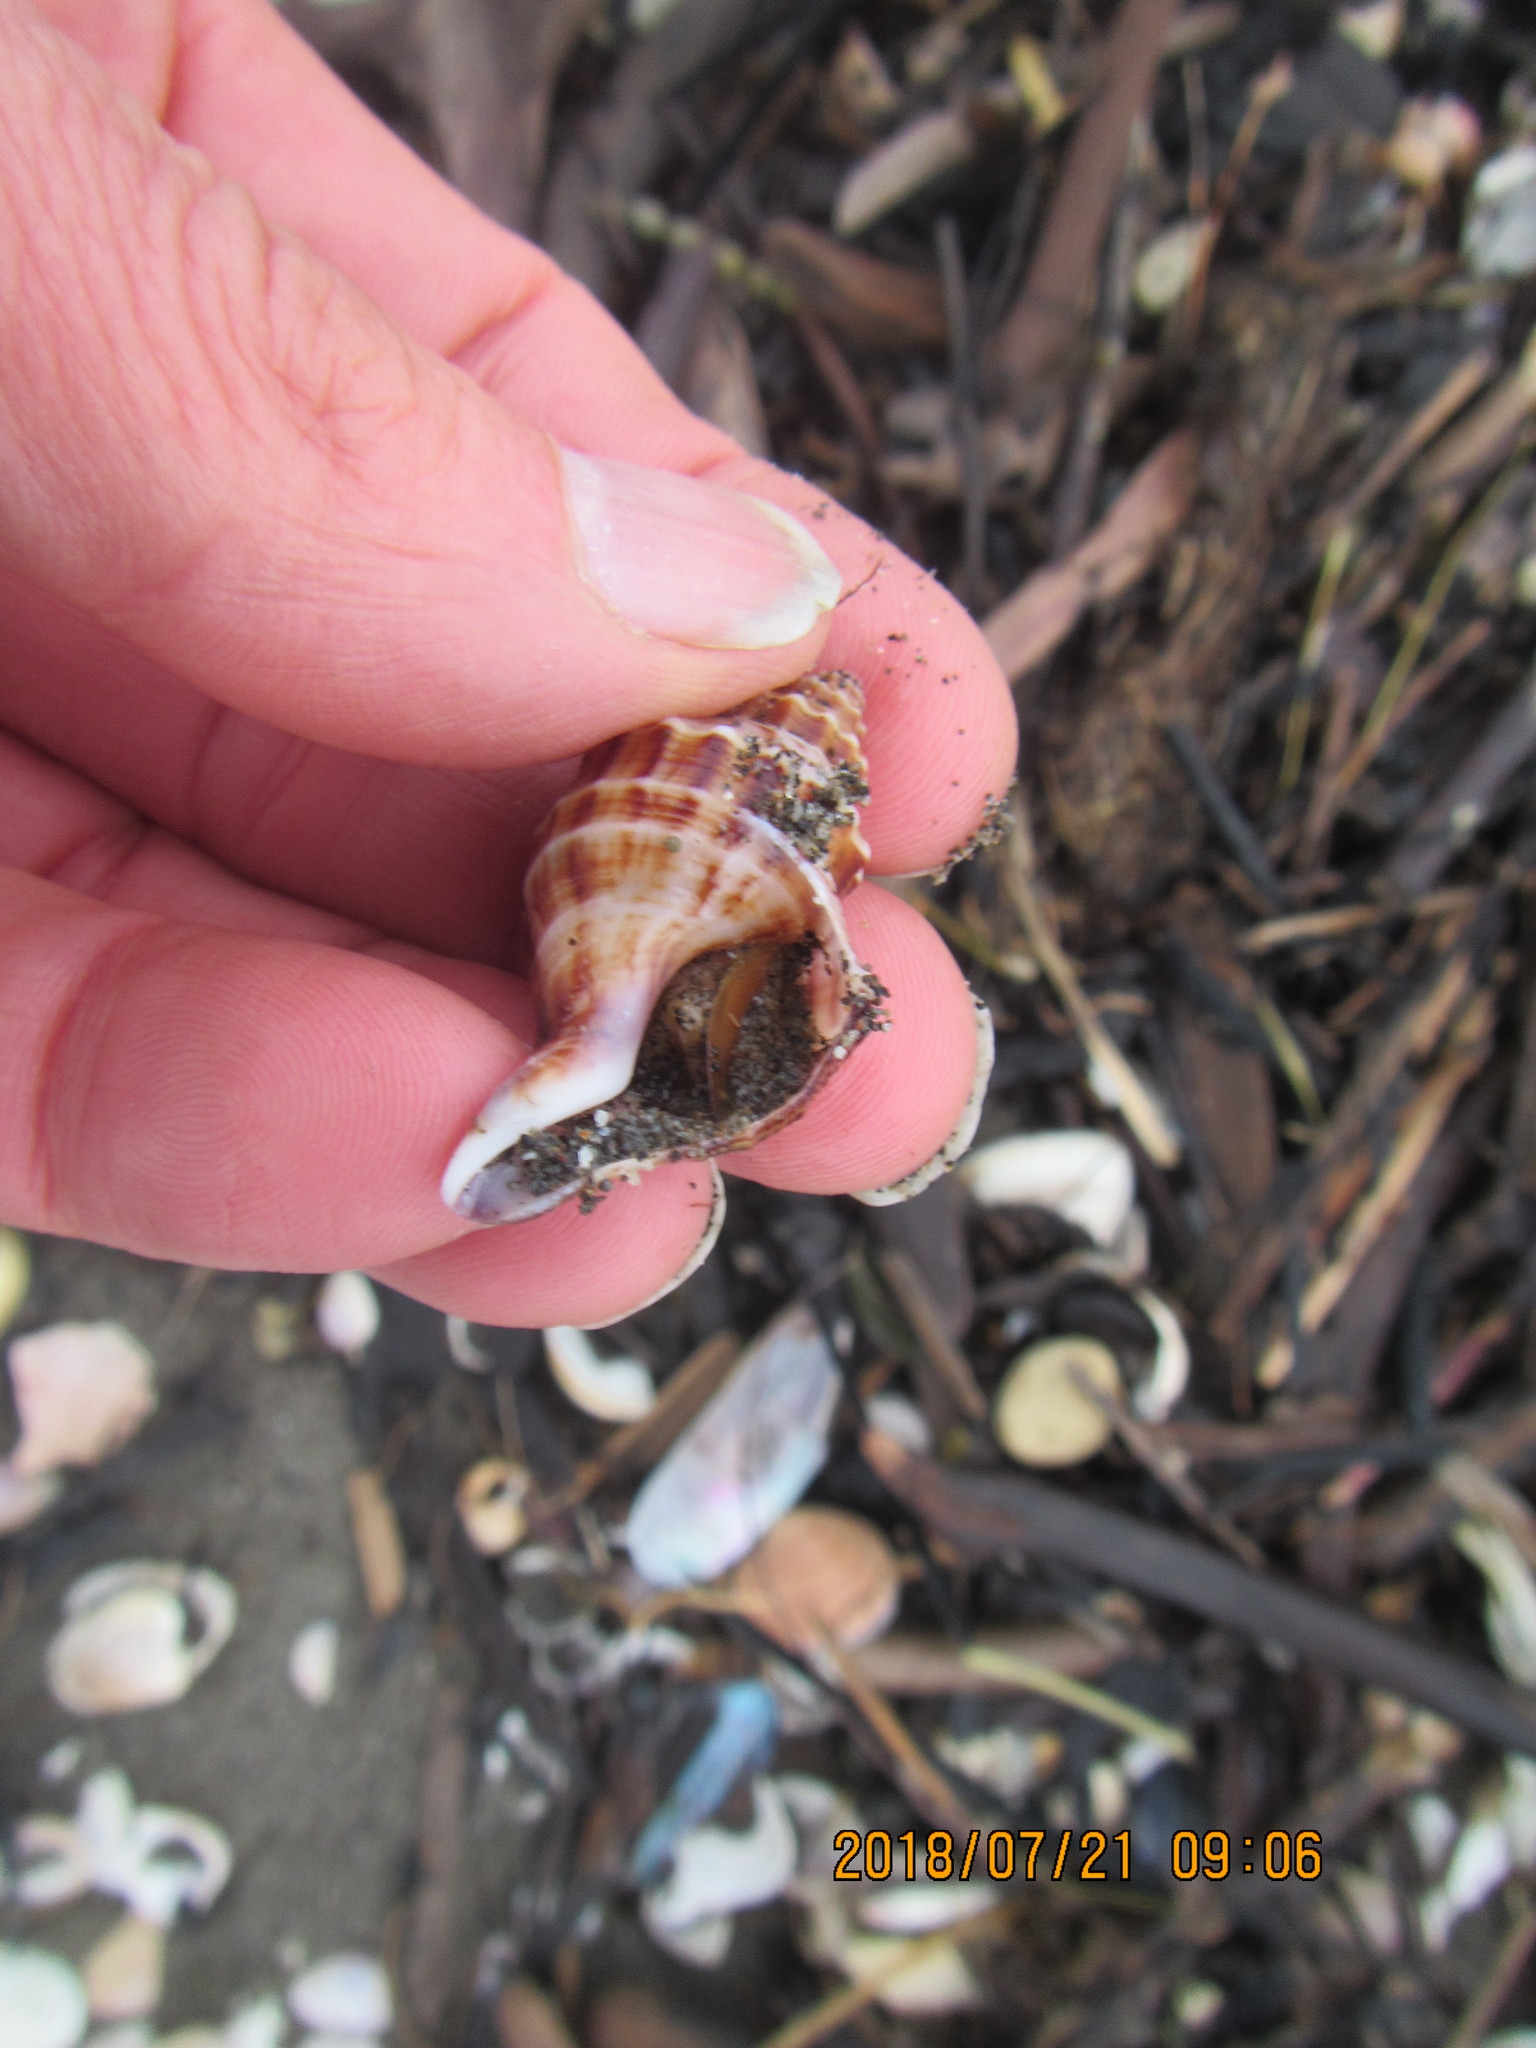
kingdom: Animalia
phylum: Mollusca
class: Gastropoda
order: Neogastropoda
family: Prosiphonidae
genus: Austrofusus
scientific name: Austrofusus glans
